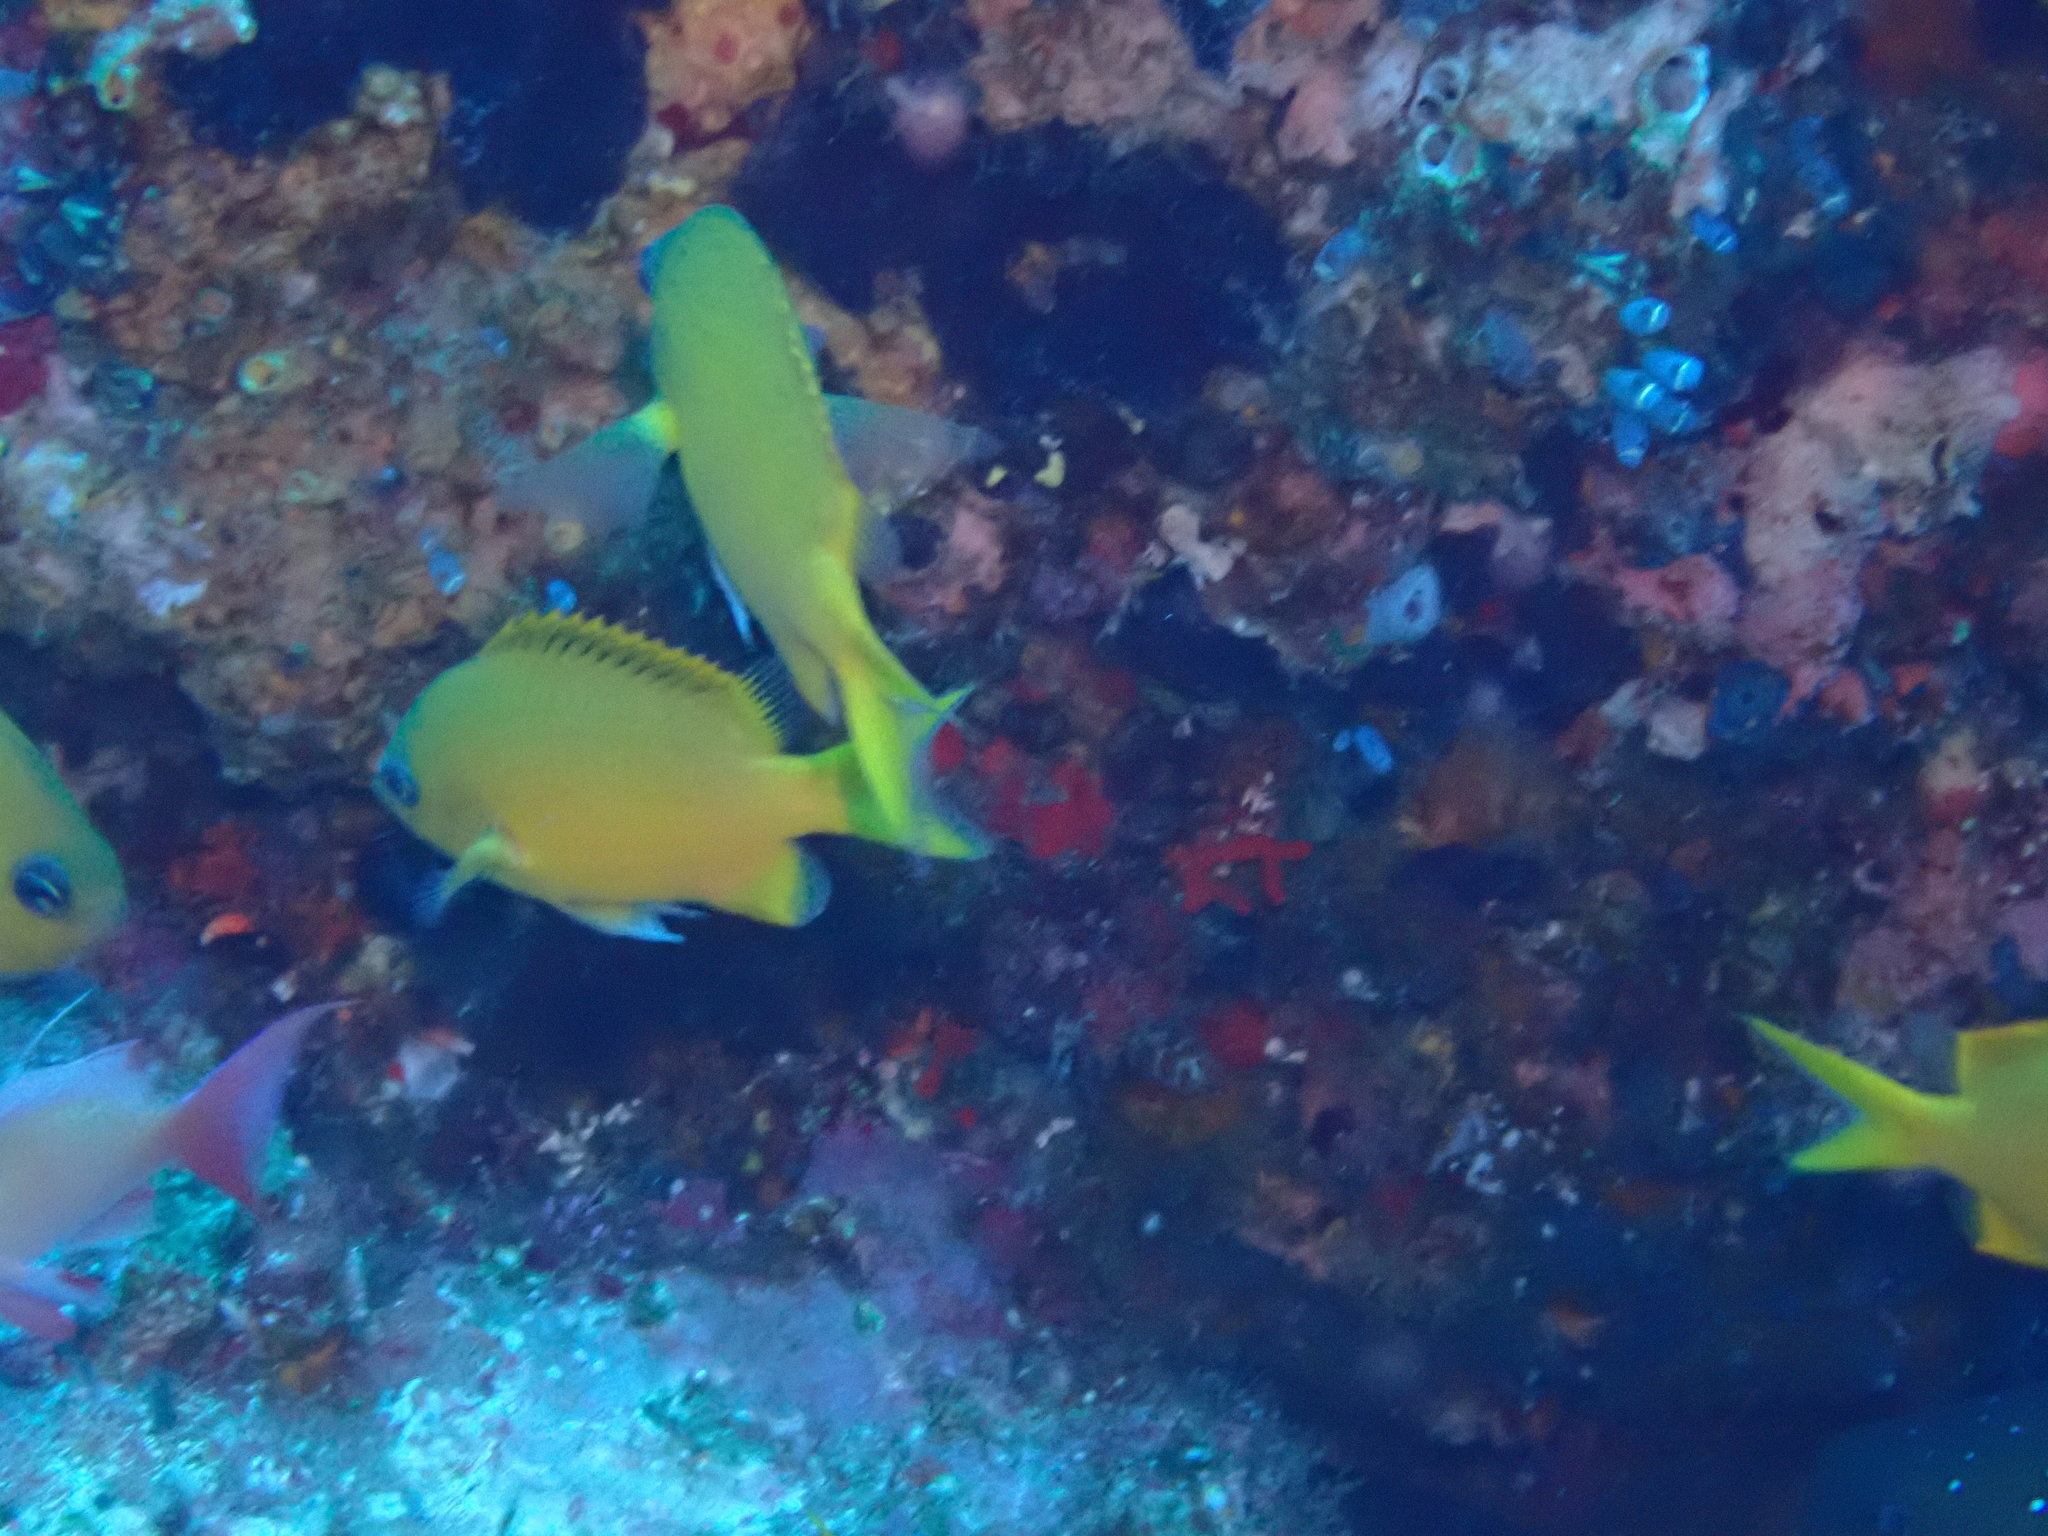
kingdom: Animalia
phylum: Chordata
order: Perciformes
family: Pomacentridae
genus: Chromis
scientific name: Chromis analis
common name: Yellow chromis
